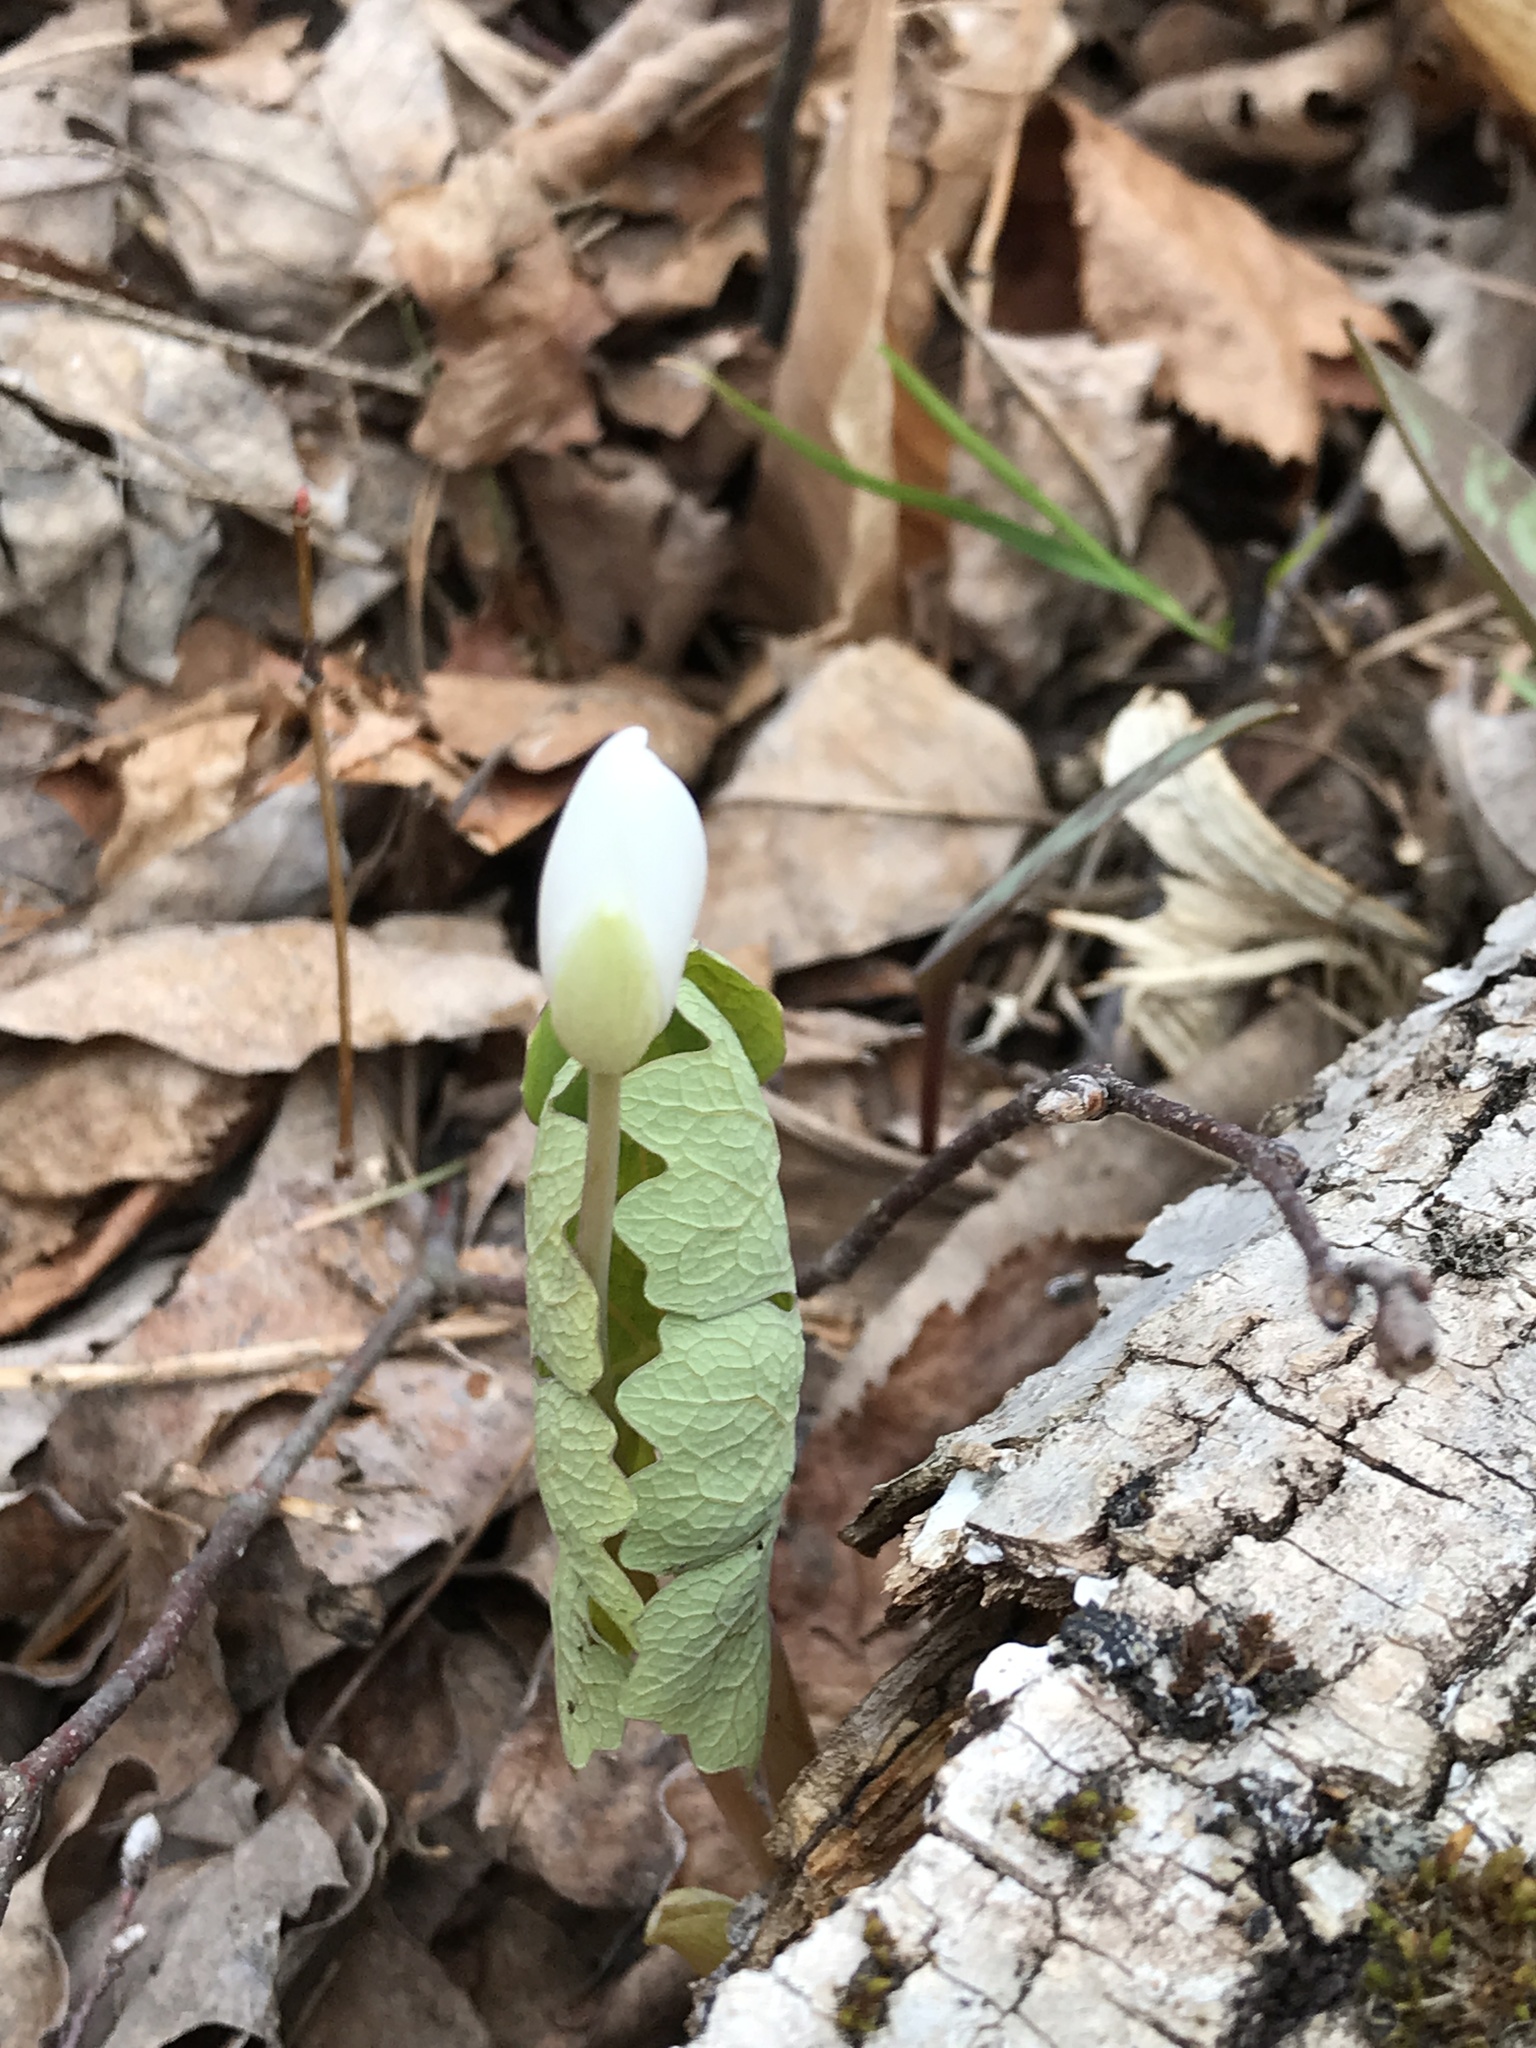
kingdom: Plantae
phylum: Tracheophyta
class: Magnoliopsida
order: Ranunculales
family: Papaveraceae
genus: Sanguinaria
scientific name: Sanguinaria canadensis
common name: Bloodroot
